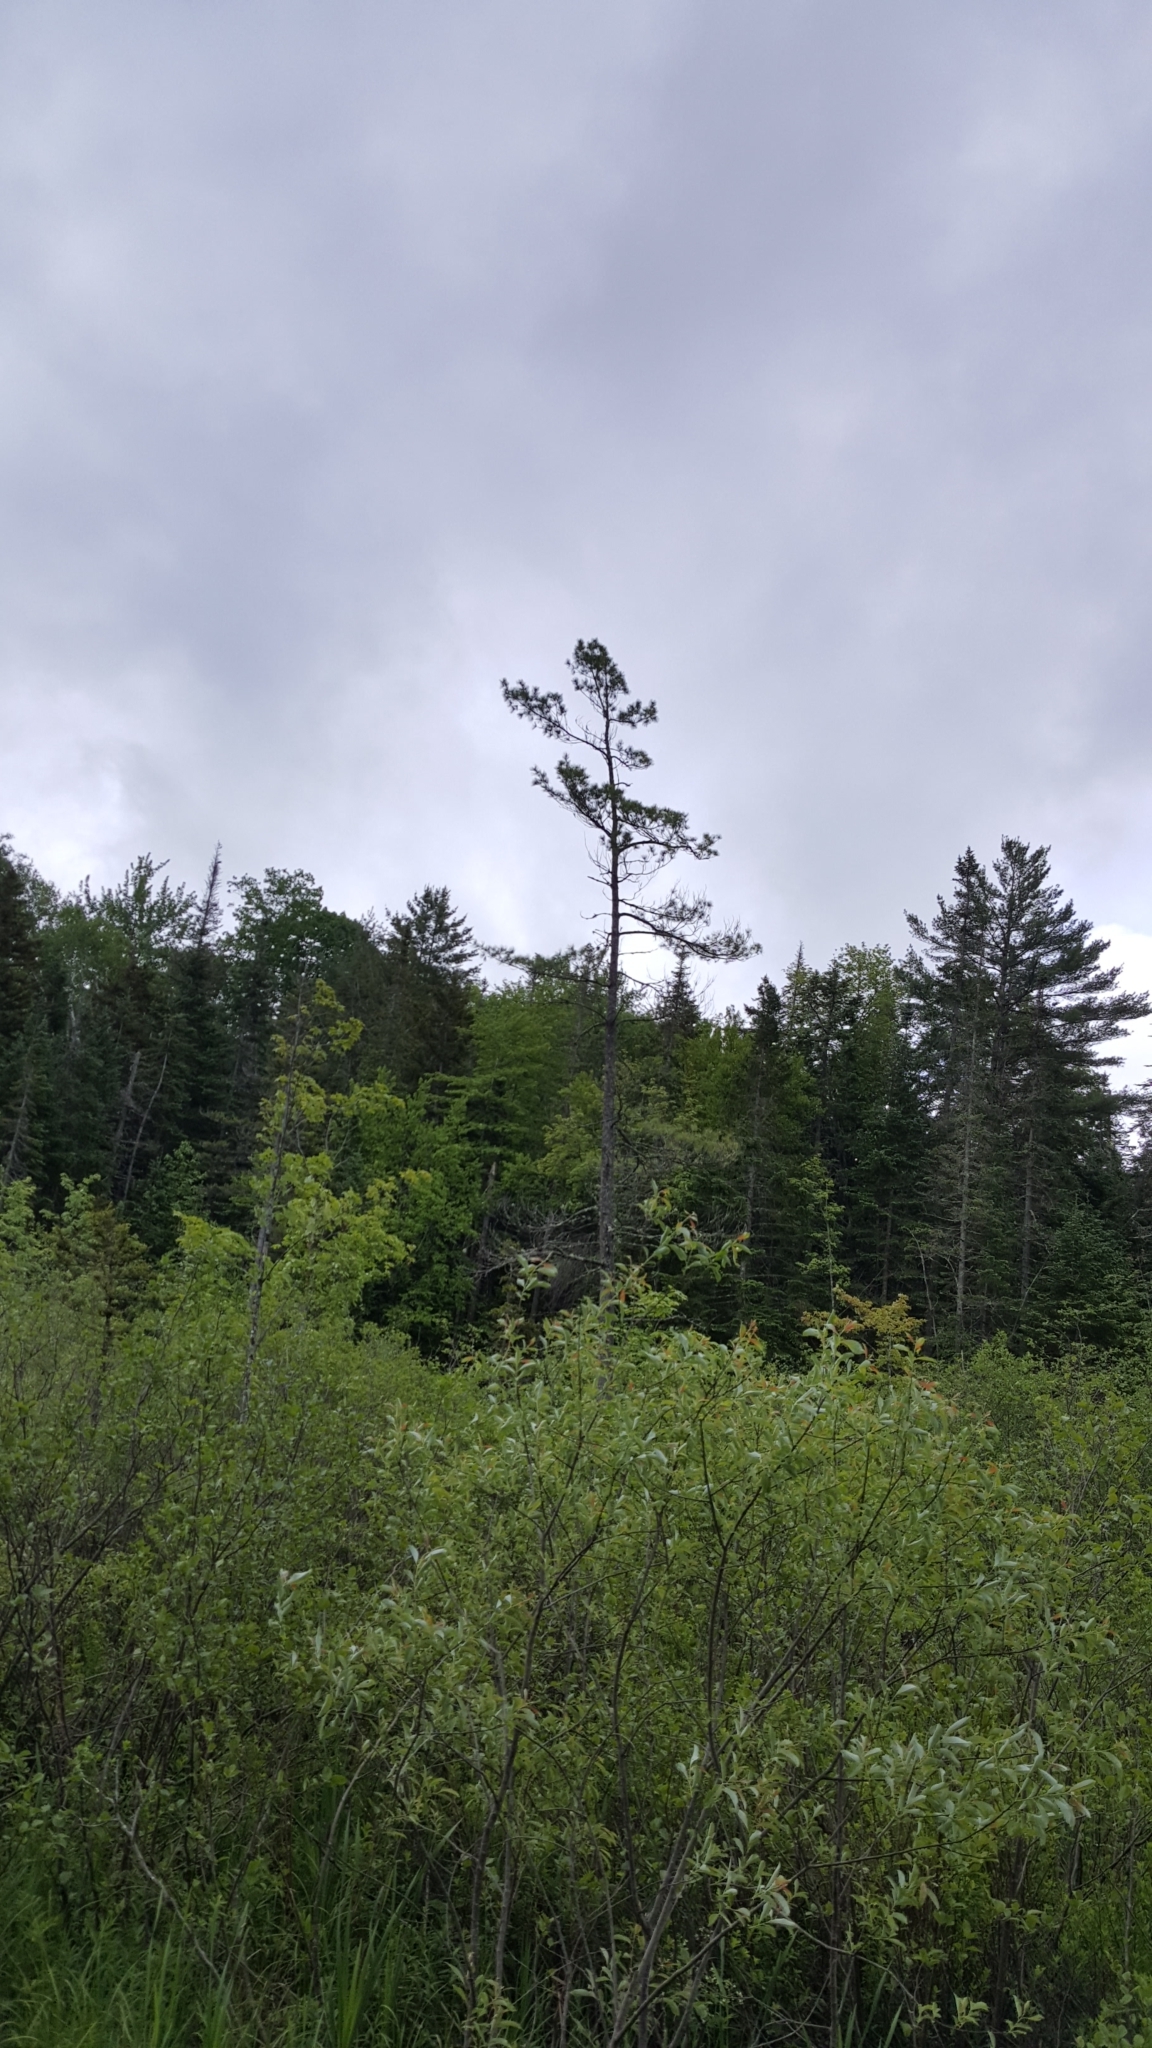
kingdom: Plantae
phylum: Tracheophyta
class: Pinopsida
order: Pinales
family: Pinaceae
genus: Pinus
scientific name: Pinus strobus
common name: Weymouth pine
